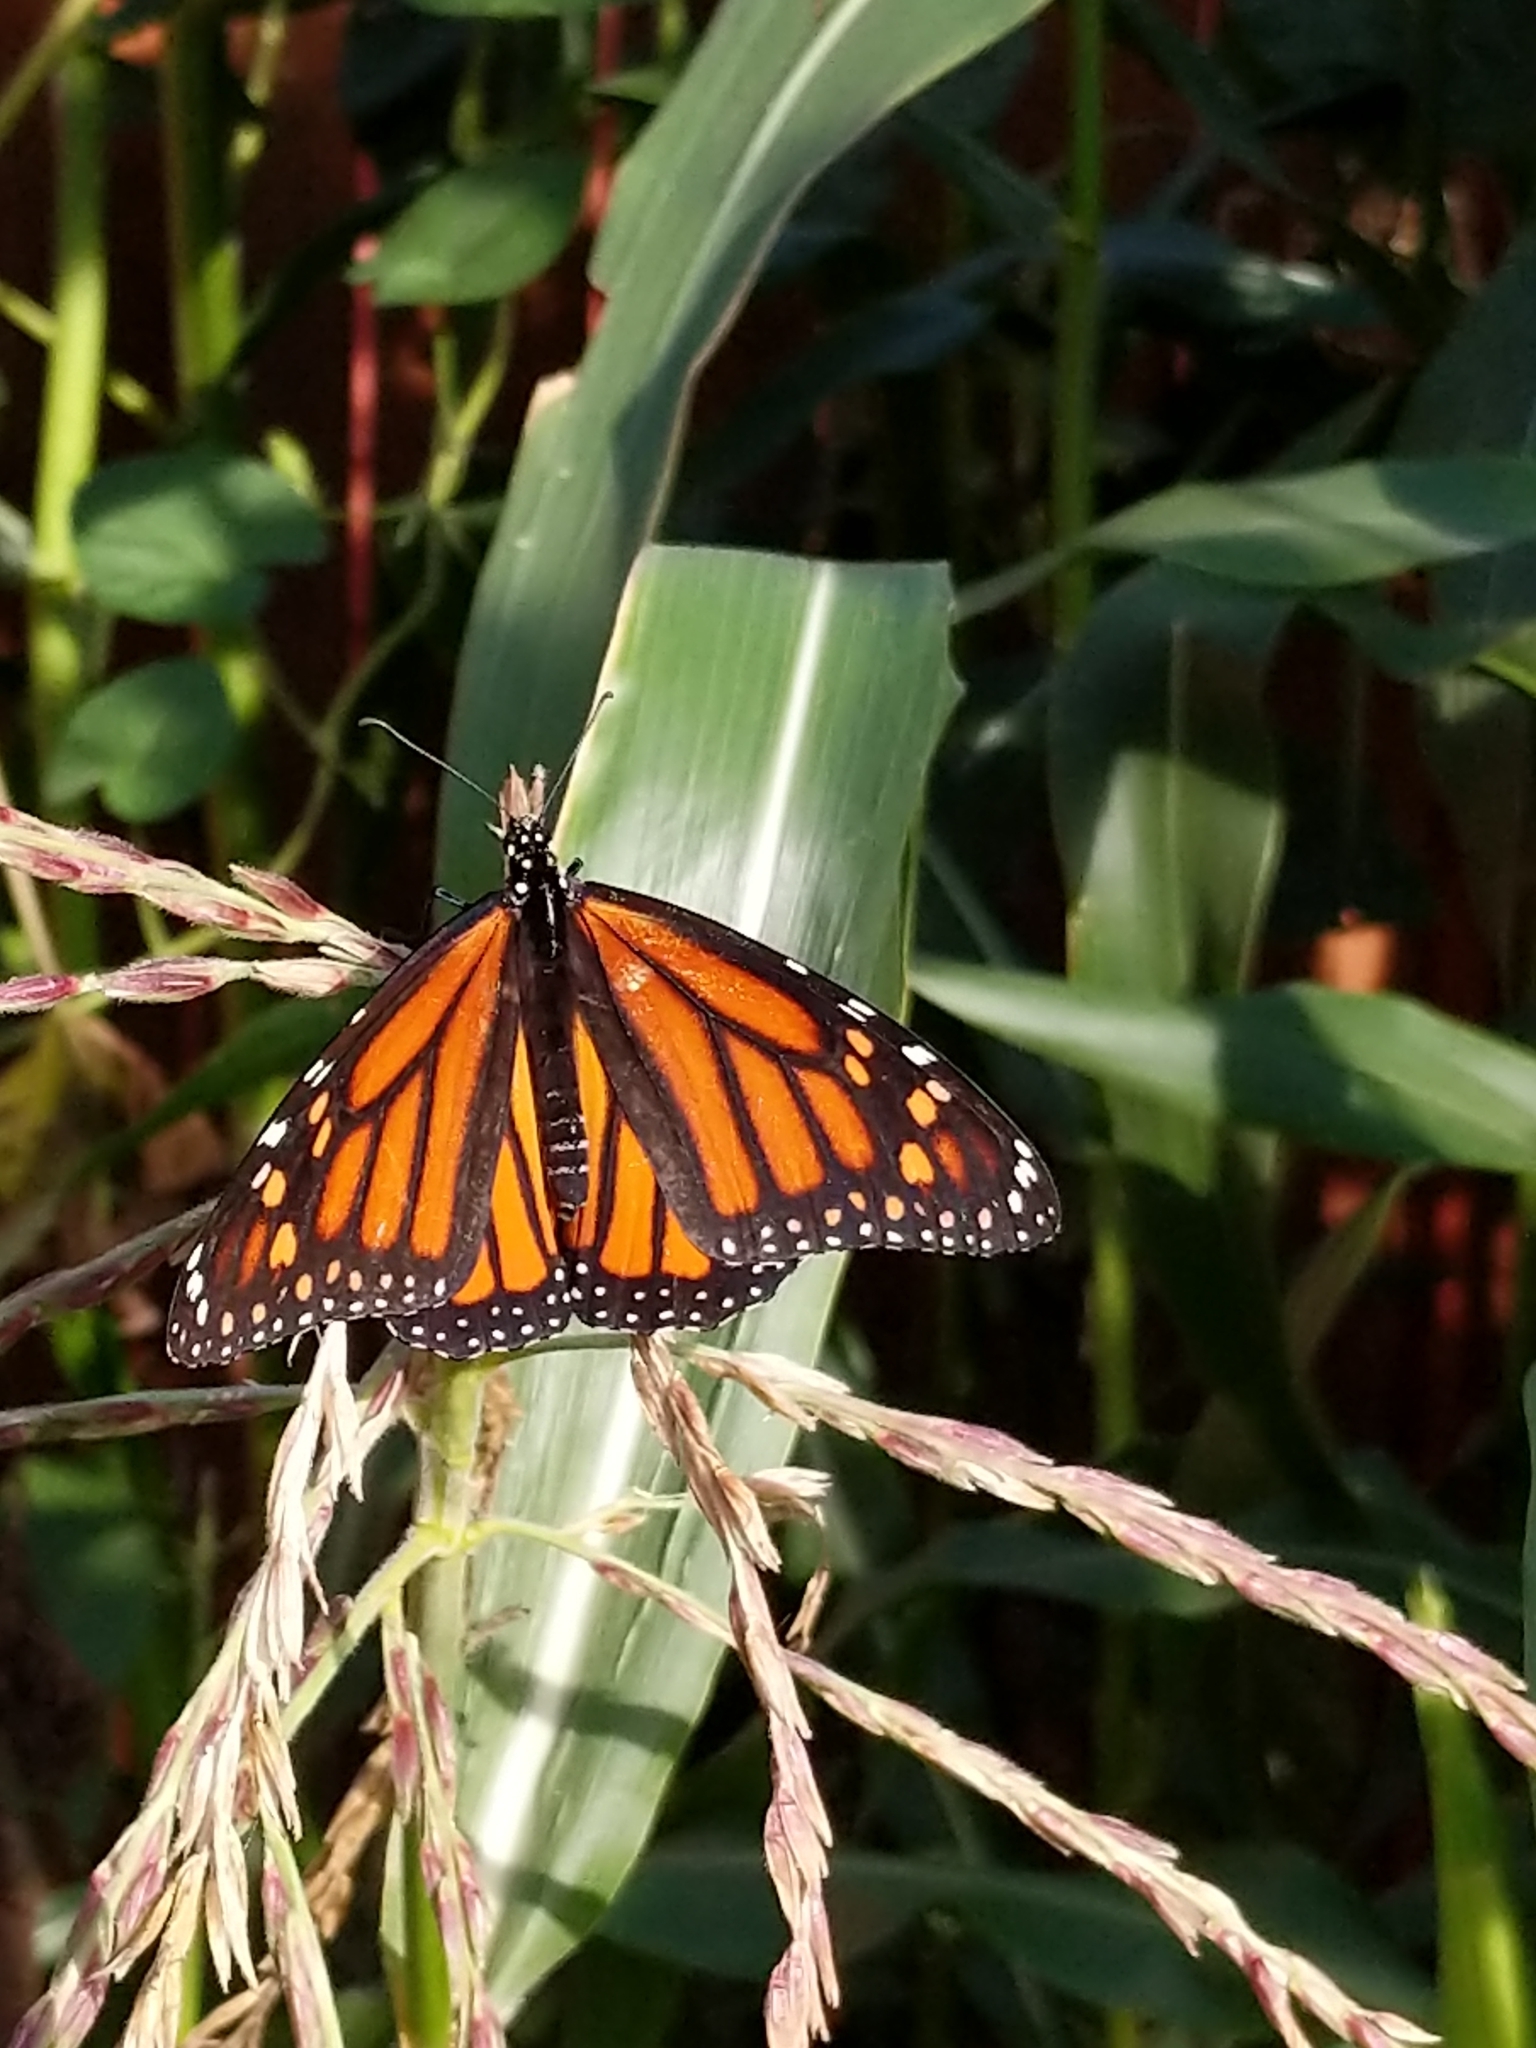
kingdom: Animalia
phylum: Arthropoda
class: Insecta
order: Lepidoptera
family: Nymphalidae
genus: Danaus
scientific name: Danaus plexippus
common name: Monarch
